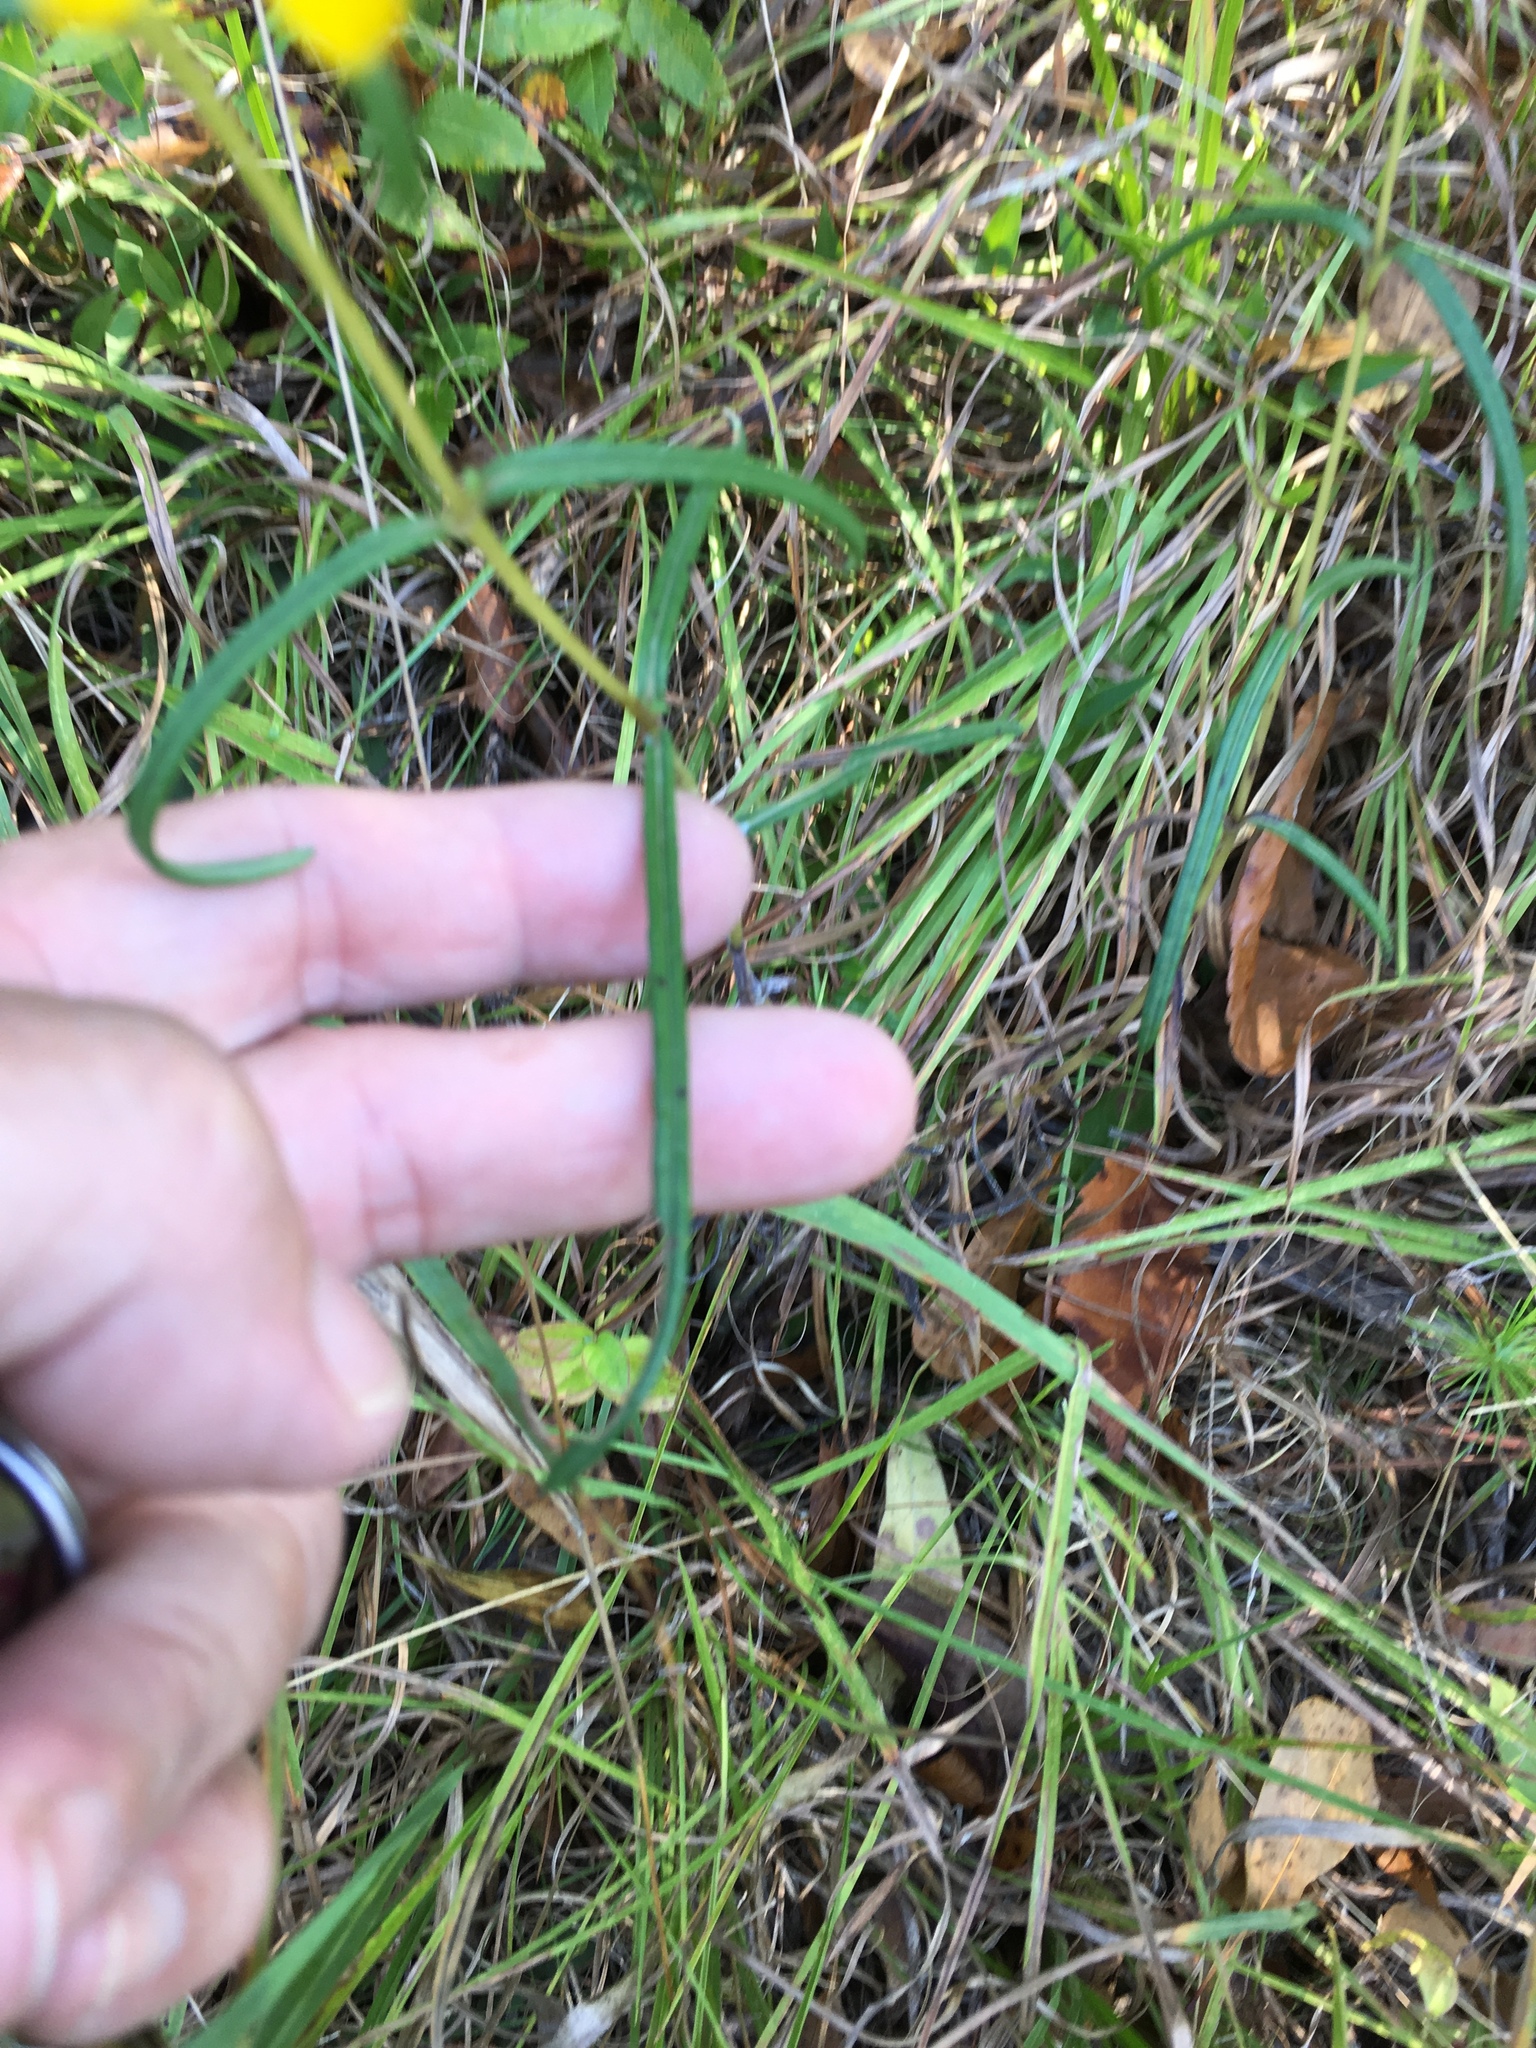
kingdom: Plantae
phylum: Tracheophyta
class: Magnoliopsida
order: Asterales
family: Asteraceae
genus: Helianthus
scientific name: Helianthus angustifolius
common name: Swamp sunflower
